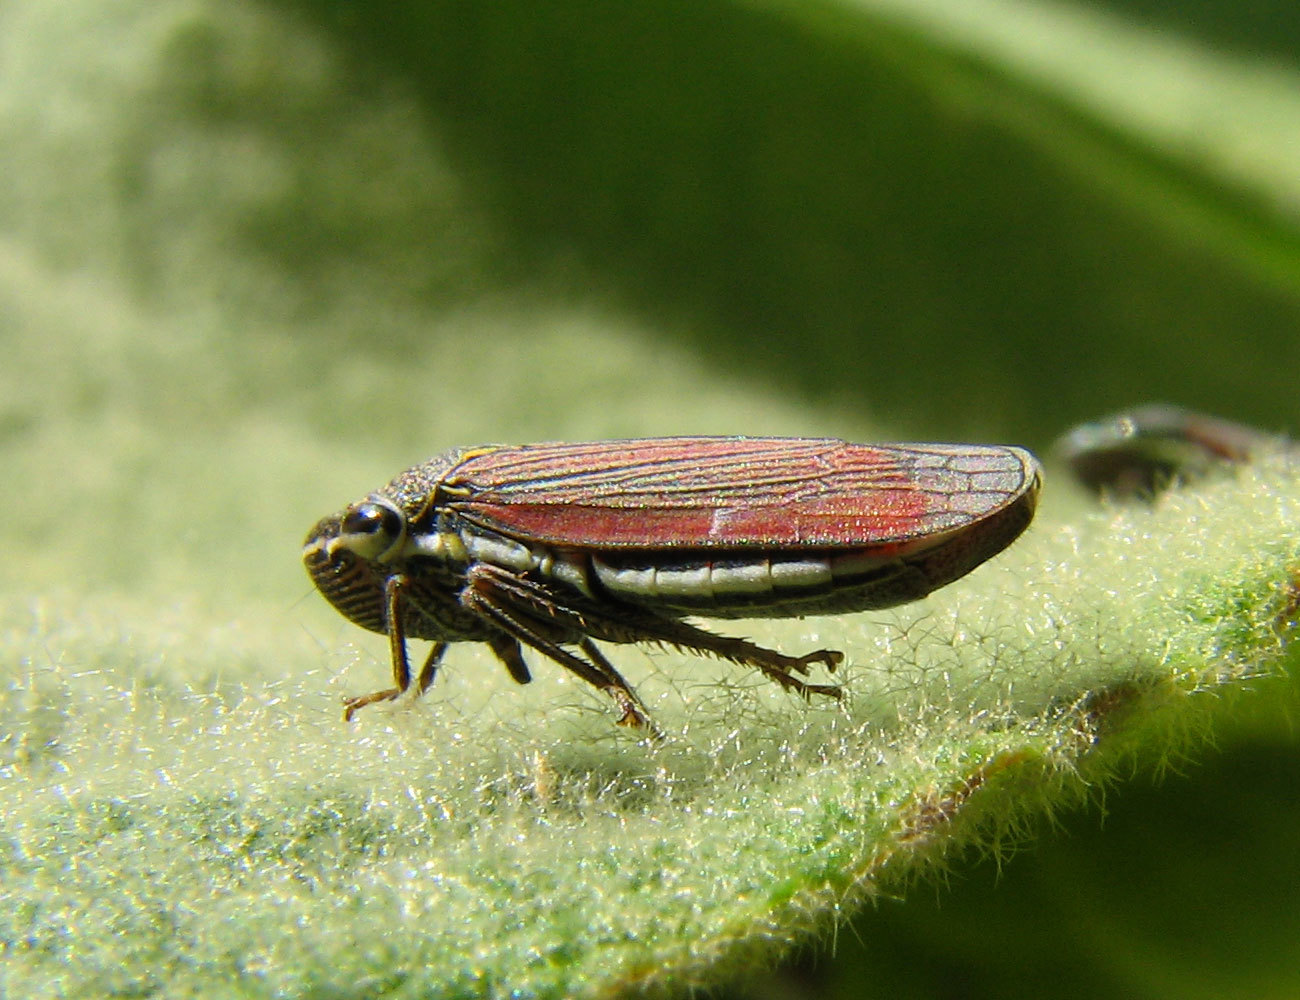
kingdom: Animalia
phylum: Arthropoda
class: Insecta
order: Hemiptera
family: Cicadellidae
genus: Cuerna
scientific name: Cuerna arida
